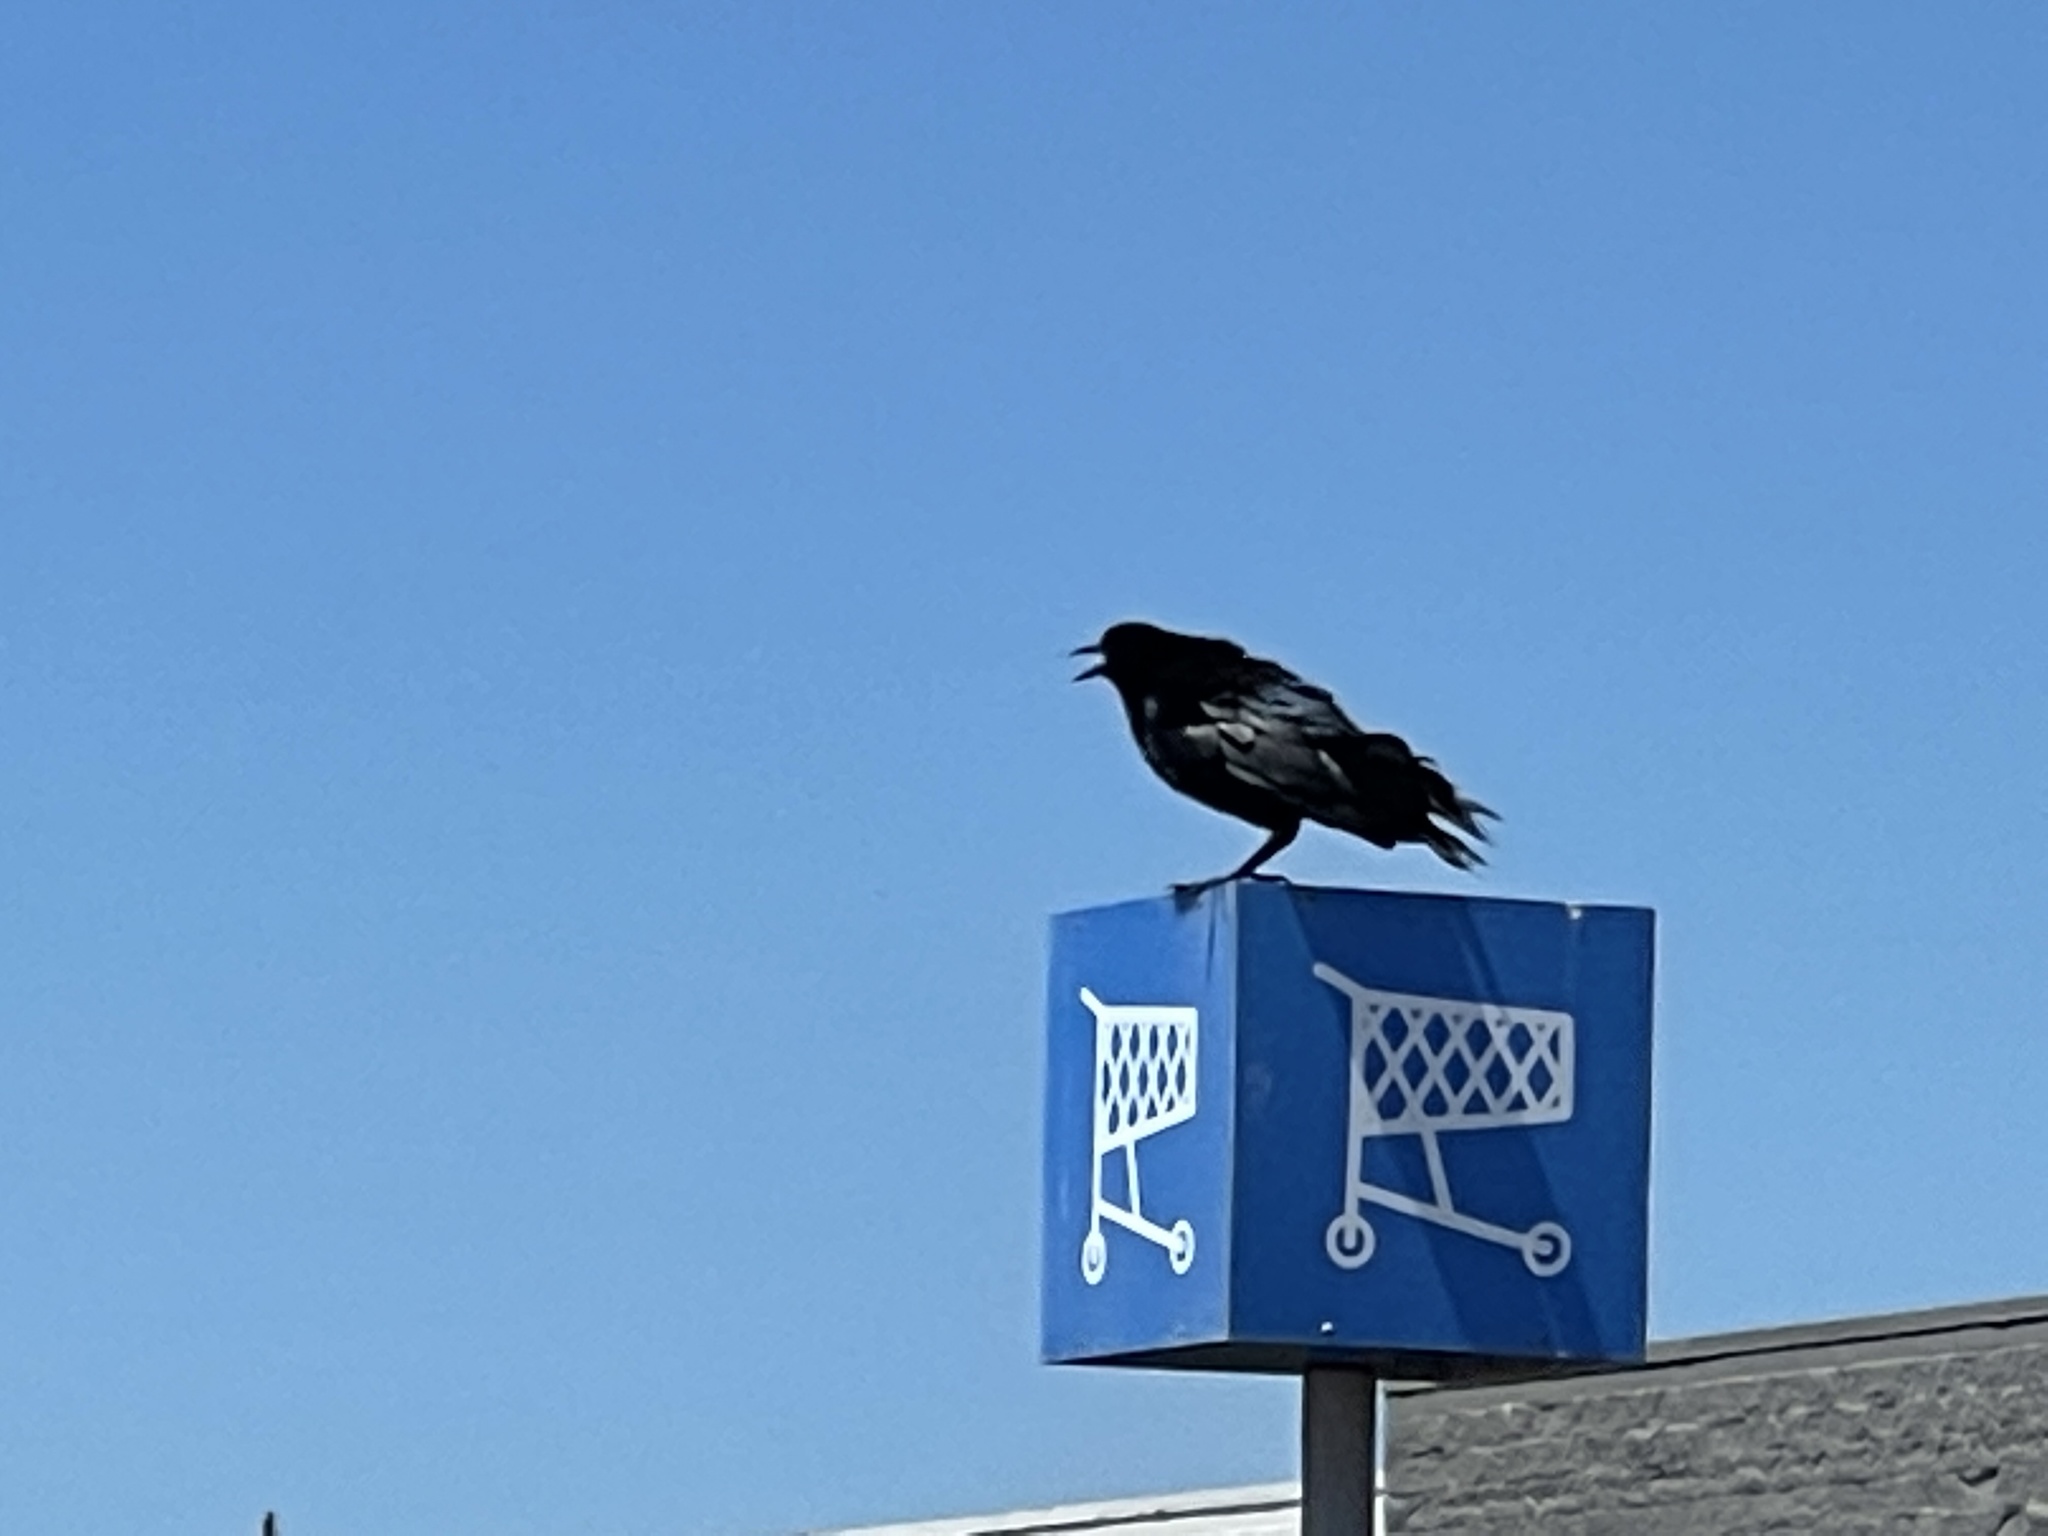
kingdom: Animalia
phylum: Chordata
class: Aves
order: Passeriformes
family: Icteridae
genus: Quiscalus
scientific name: Quiscalus mexicanus
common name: Great-tailed grackle
